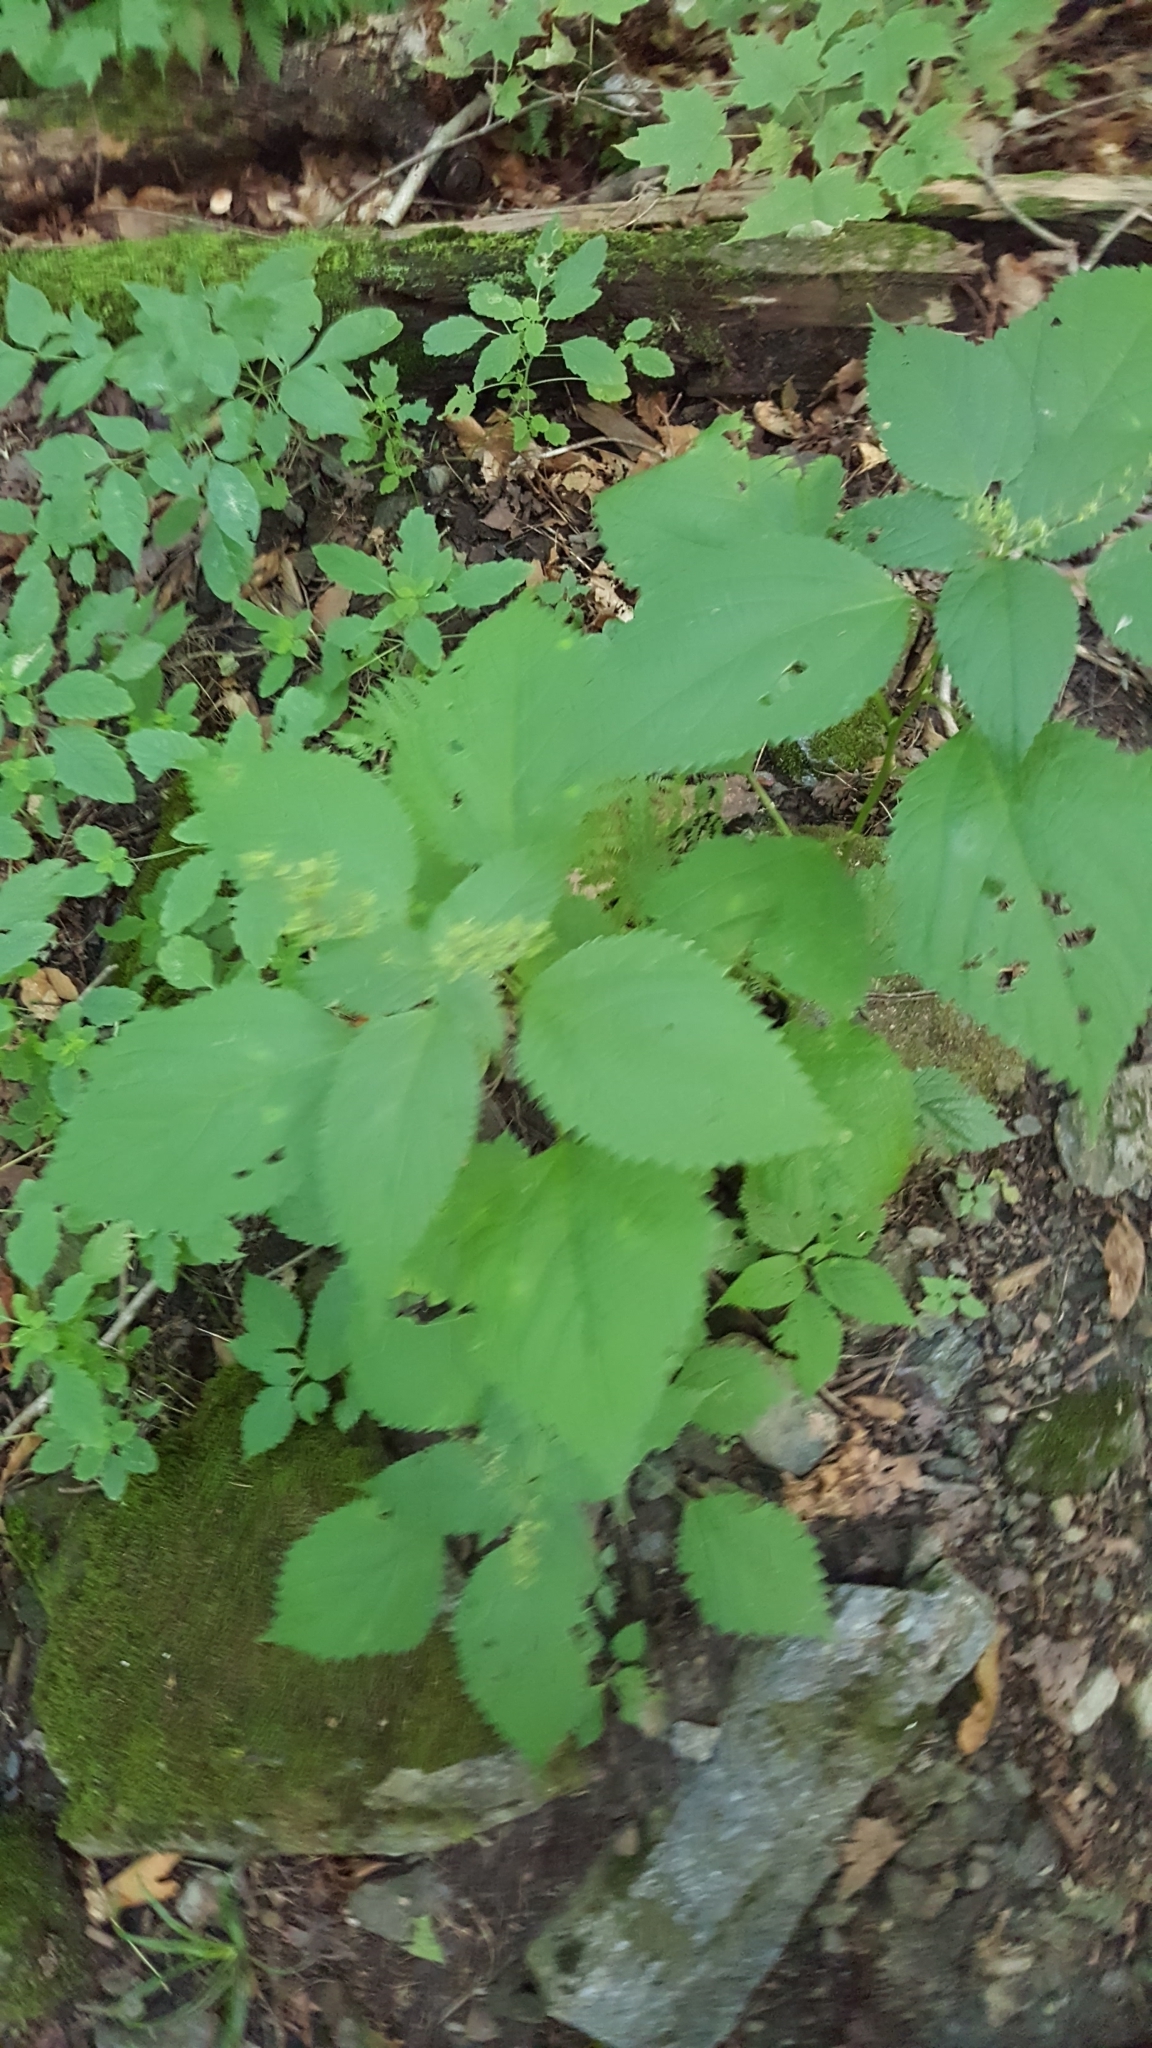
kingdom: Plantae
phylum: Tracheophyta
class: Magnoliopsida
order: Rosales
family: Urticaceae
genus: Laportea
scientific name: Laportea canadensis
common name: Canada nettle
